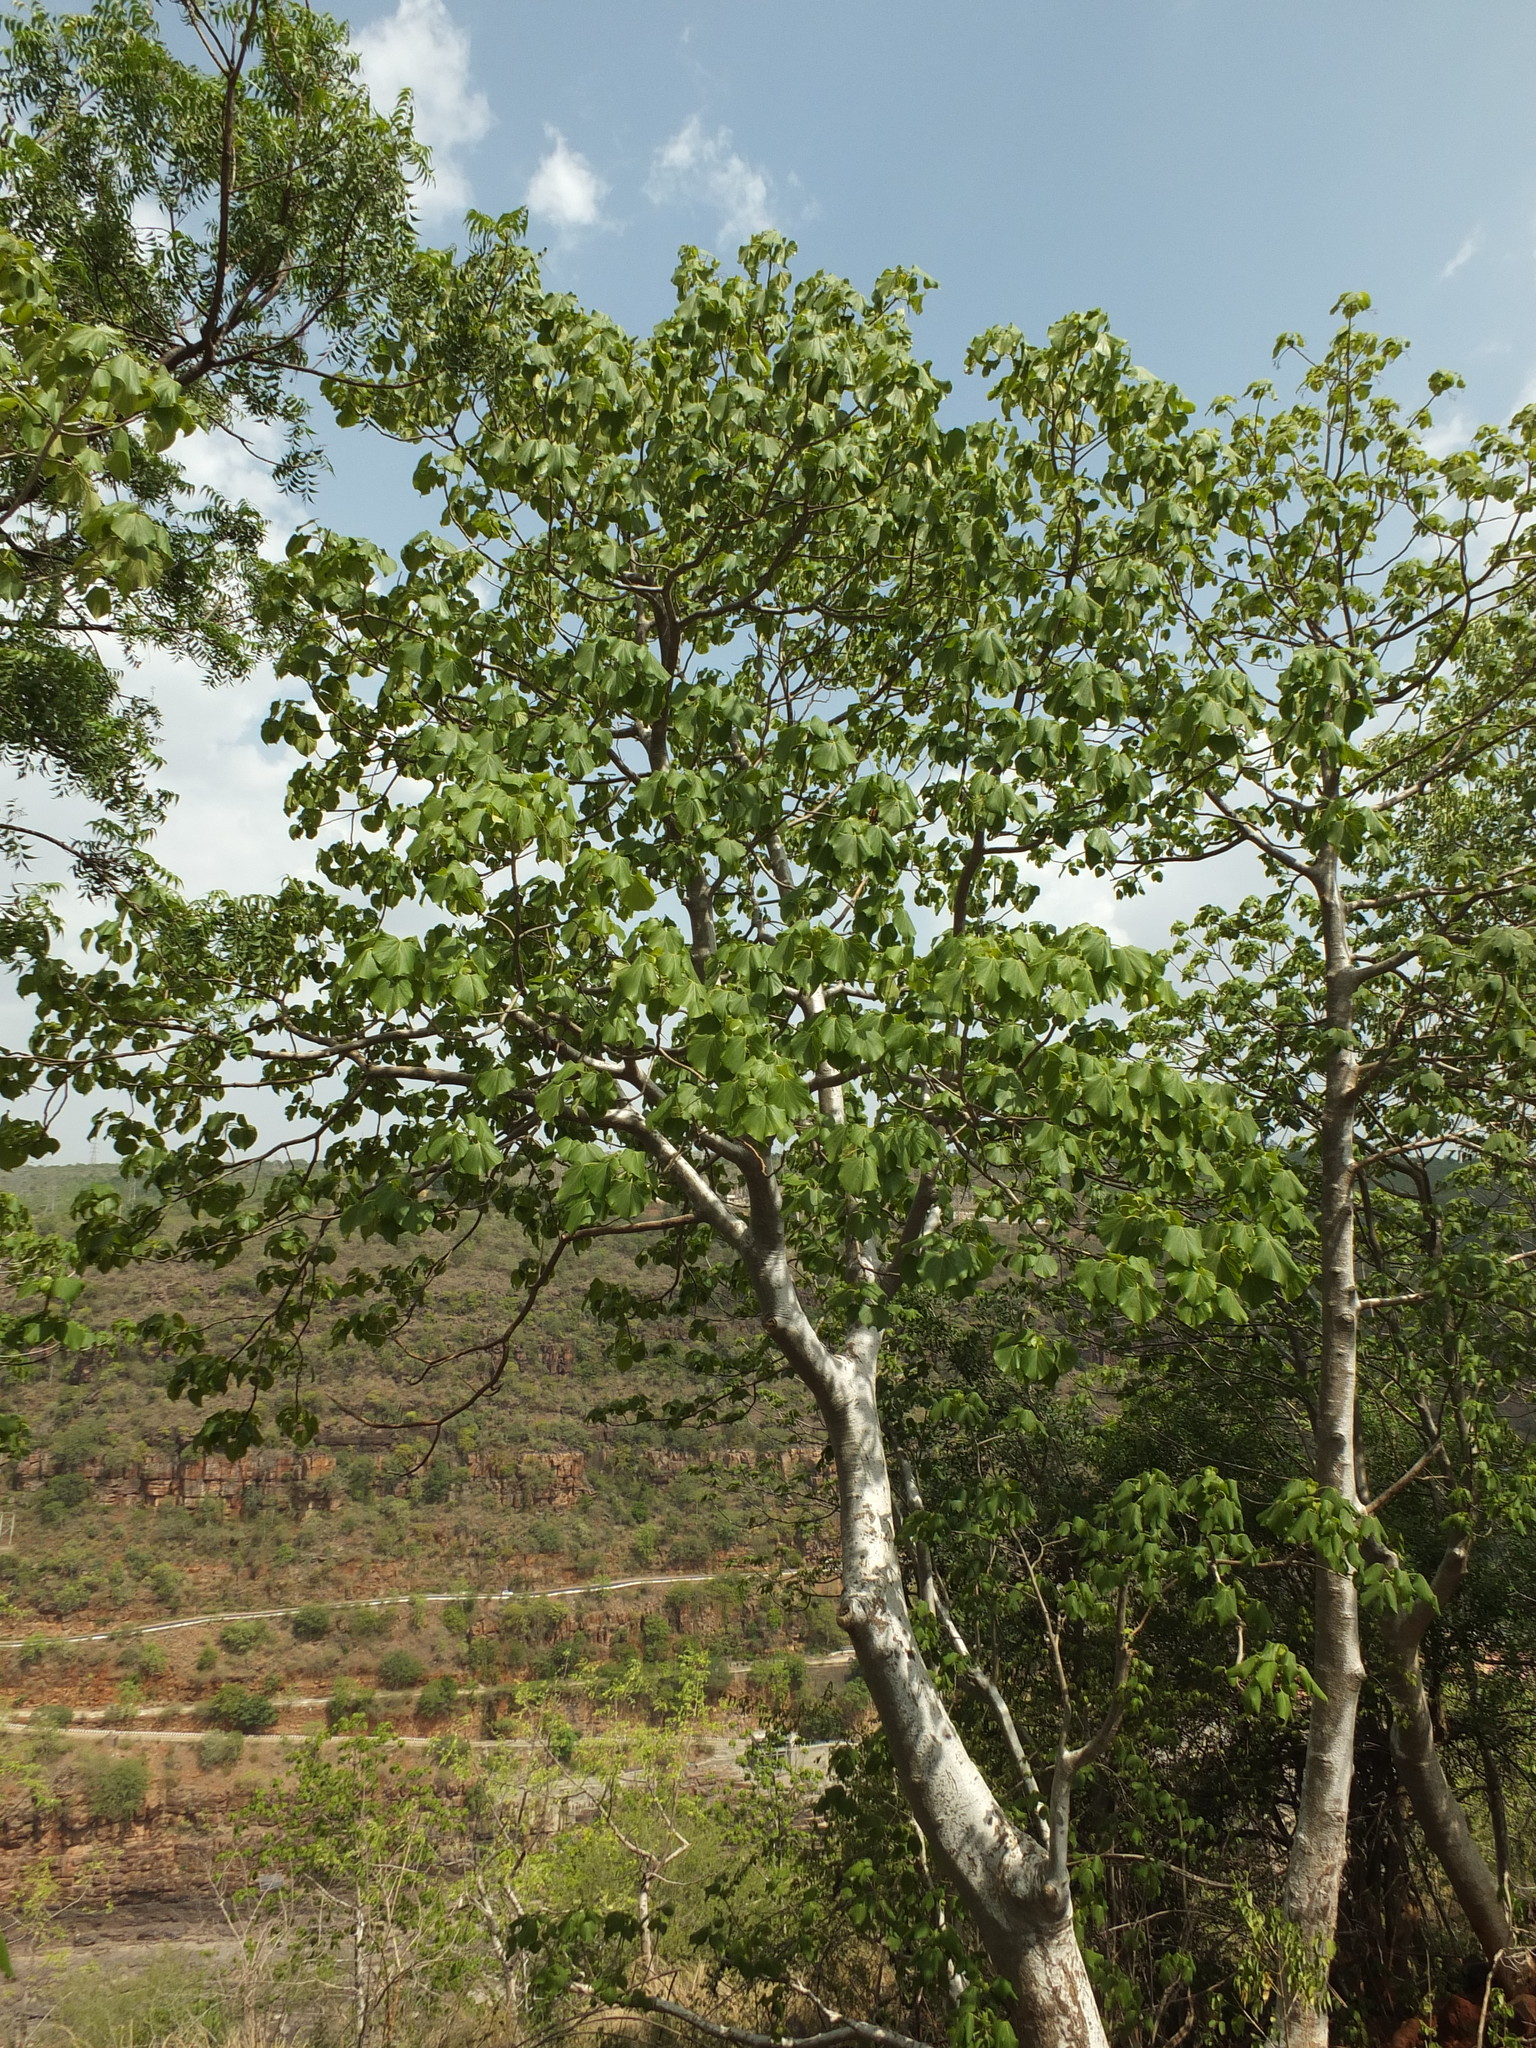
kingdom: Plantae
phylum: Tracheophyta
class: Magnoliopsida
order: Laurales
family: Hernandiaceae
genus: Gyrocarpus
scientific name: Gyrocarpus americanus
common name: Gyro damson
